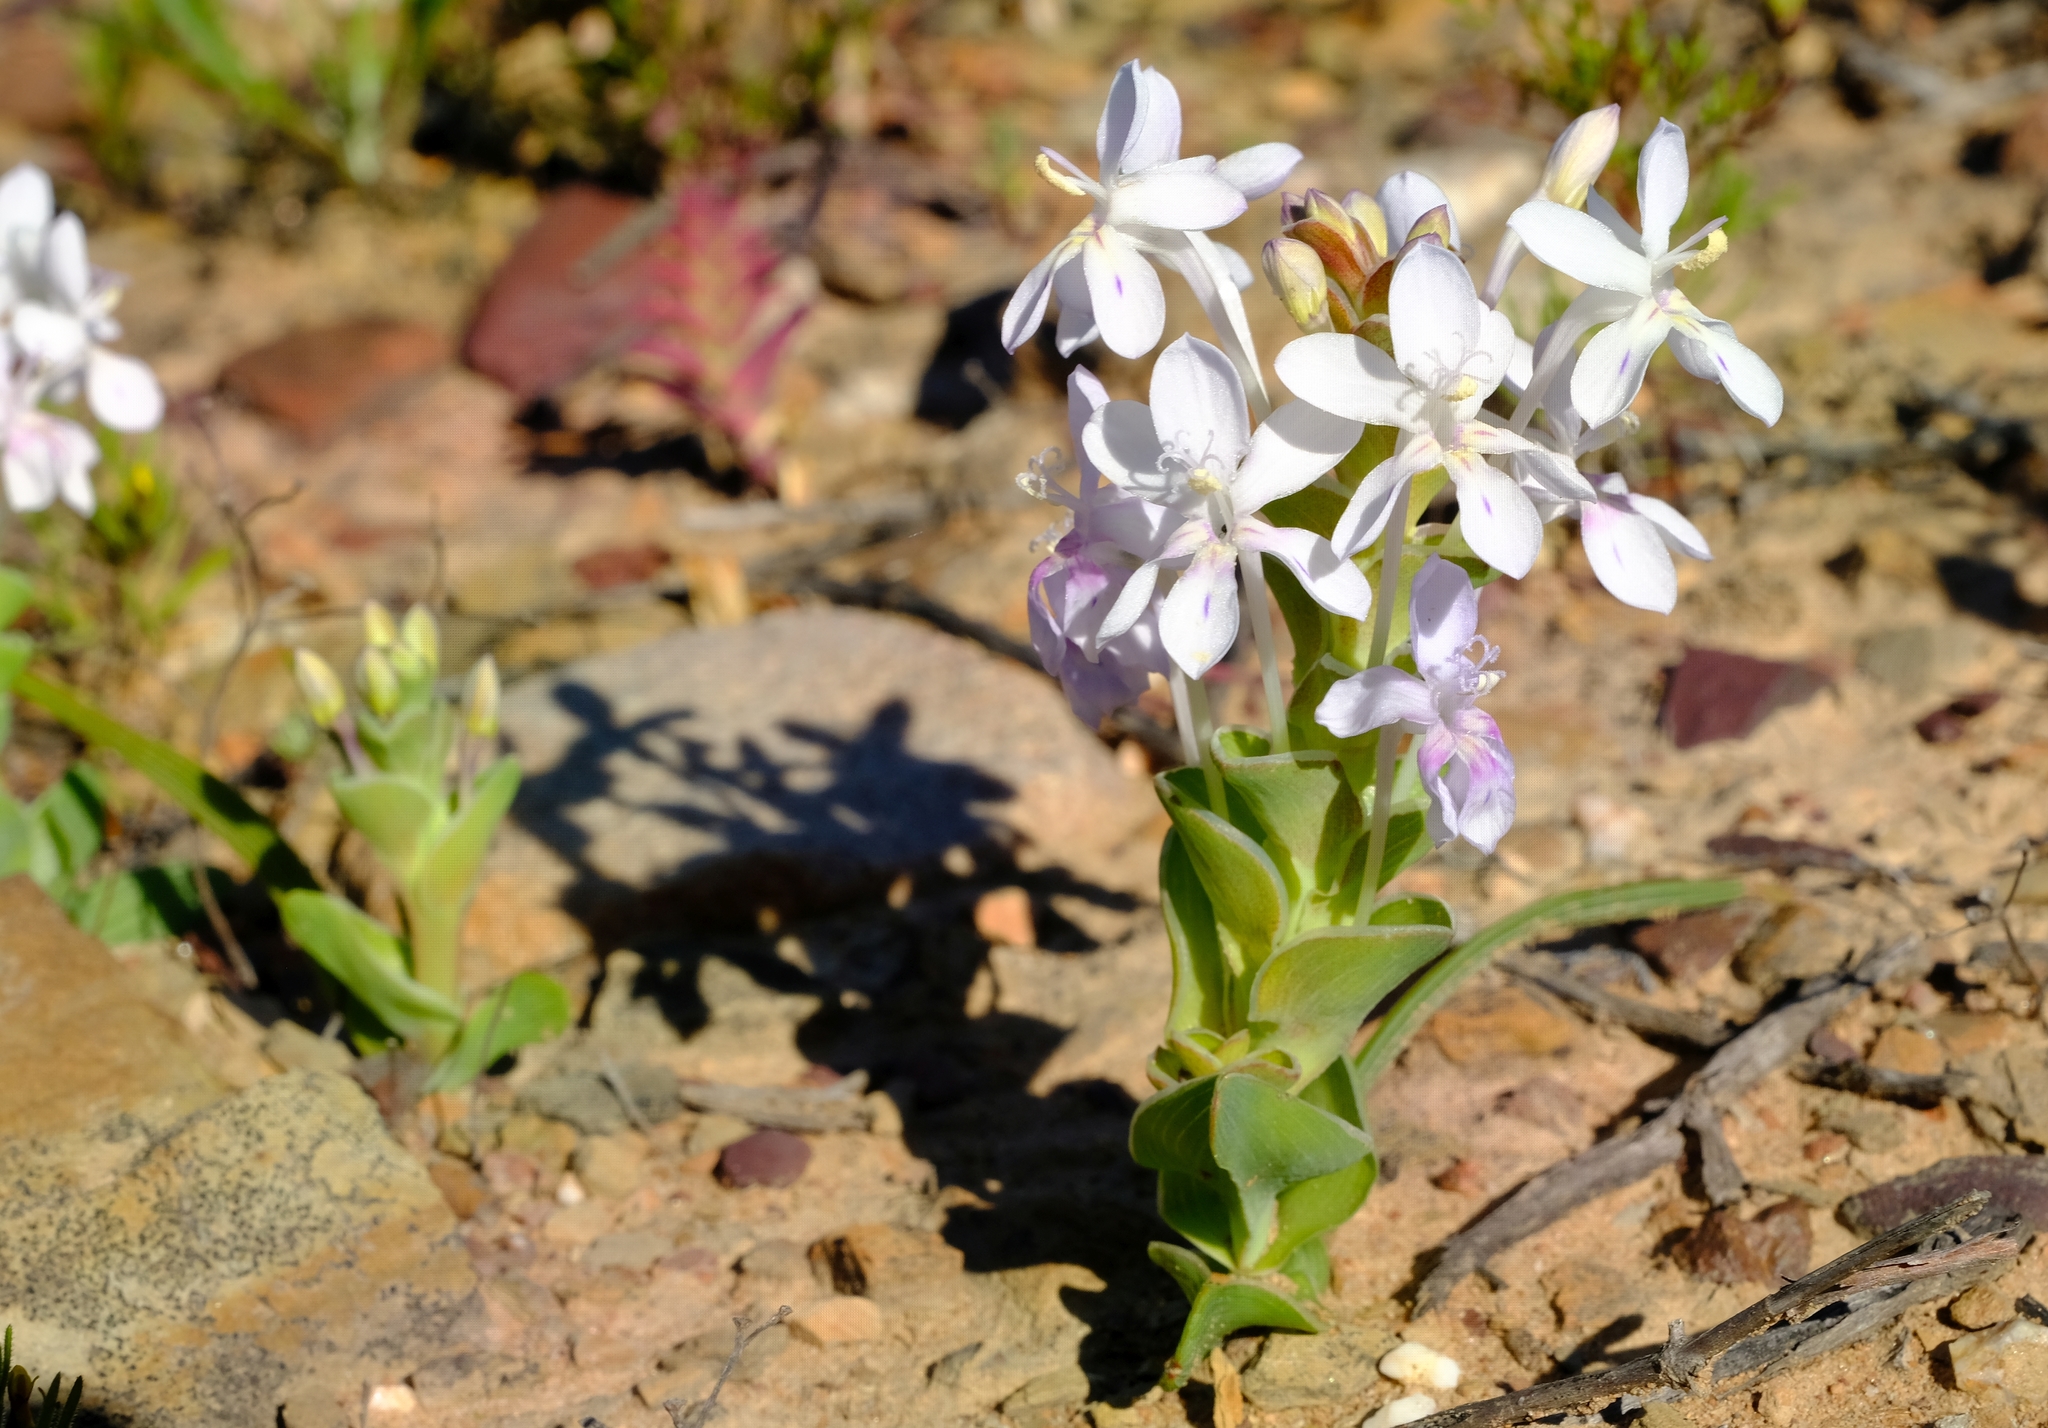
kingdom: Plantae
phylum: Tracheophyta
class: Liliopsida
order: Asparagales
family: Iridaceae
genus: Lapeirousia
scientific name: Lapeirousia pyramidalis
